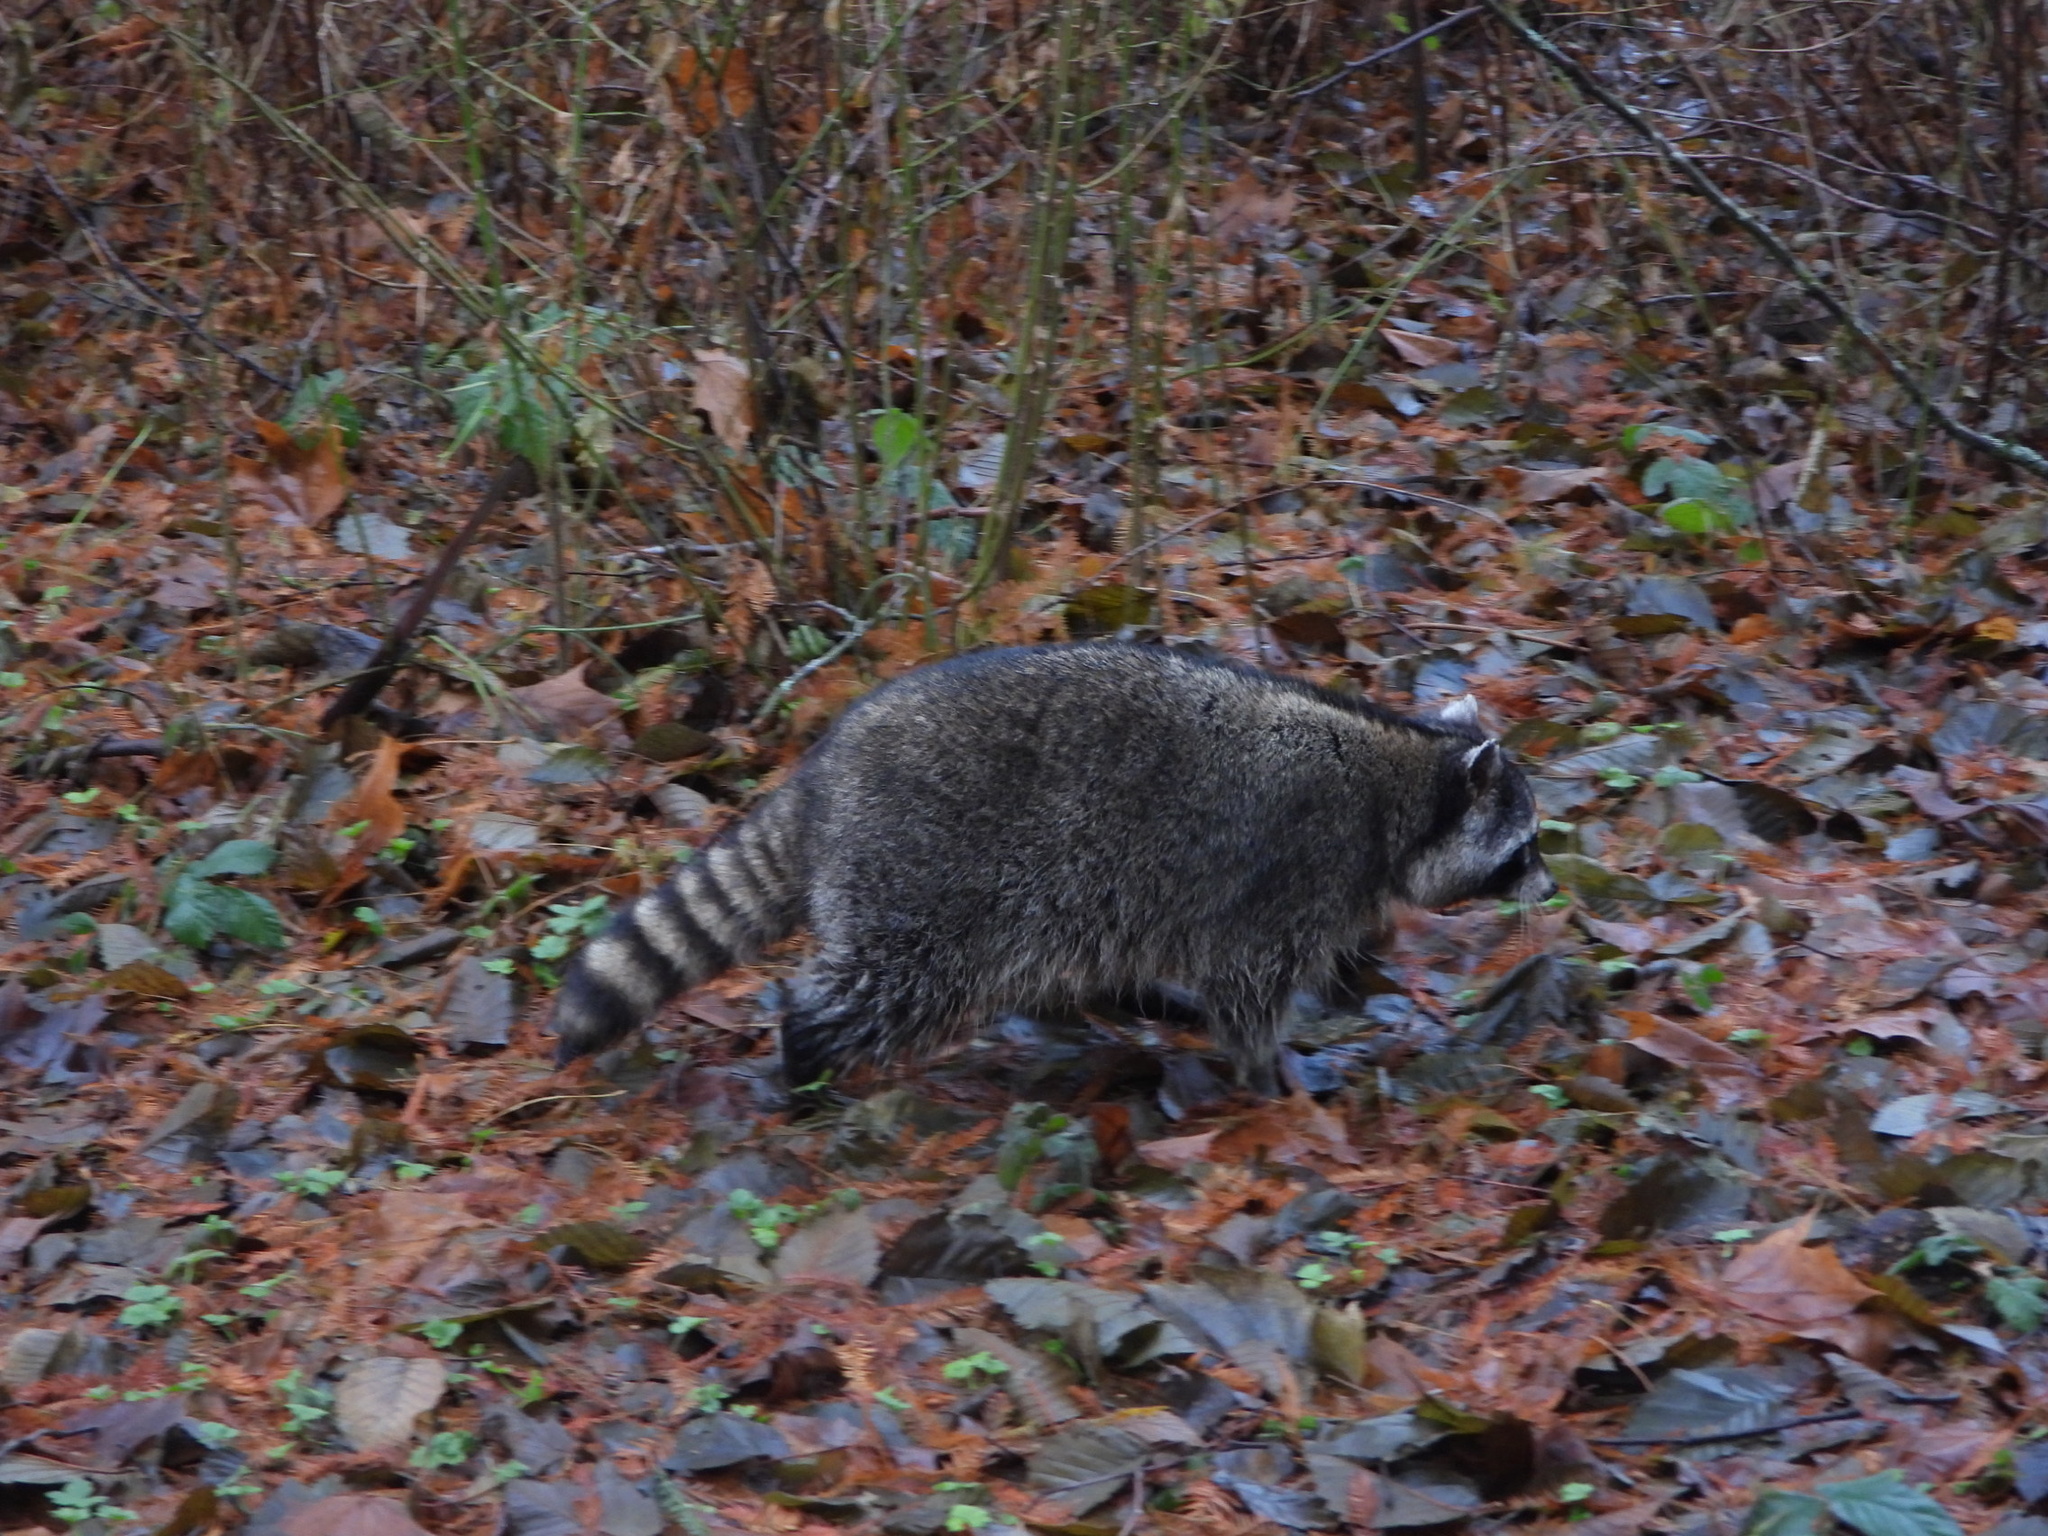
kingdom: Animalia
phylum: Chordata
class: Mammalia
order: Carnivora
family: Procyonidae
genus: Procyon
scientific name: Procyon lotor
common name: Raccoon
